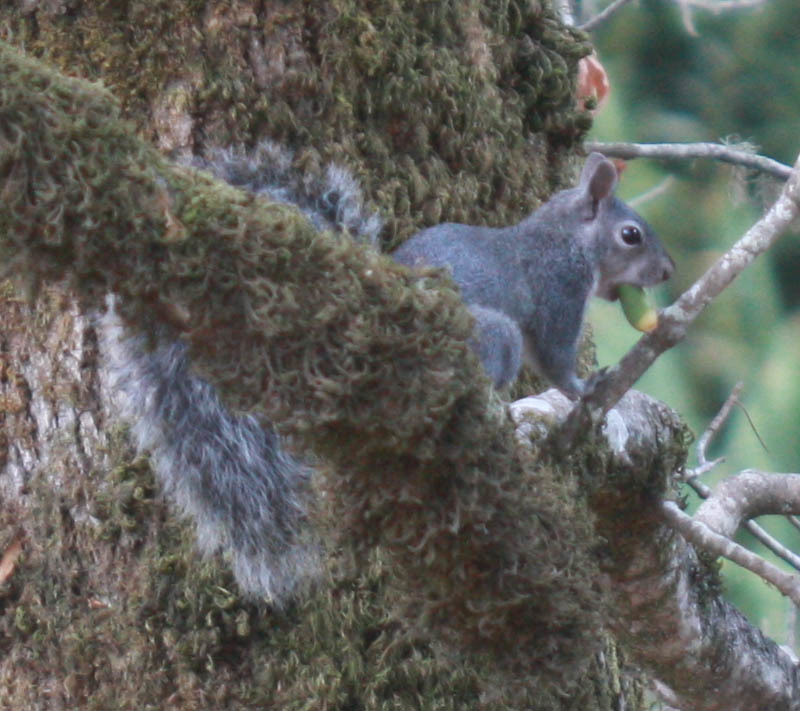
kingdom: Animalia
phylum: Chordata
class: Mammalia
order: Rodentia
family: Sciuridae
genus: Sciurus
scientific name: Sciurus griseus
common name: Western gray squirrel
